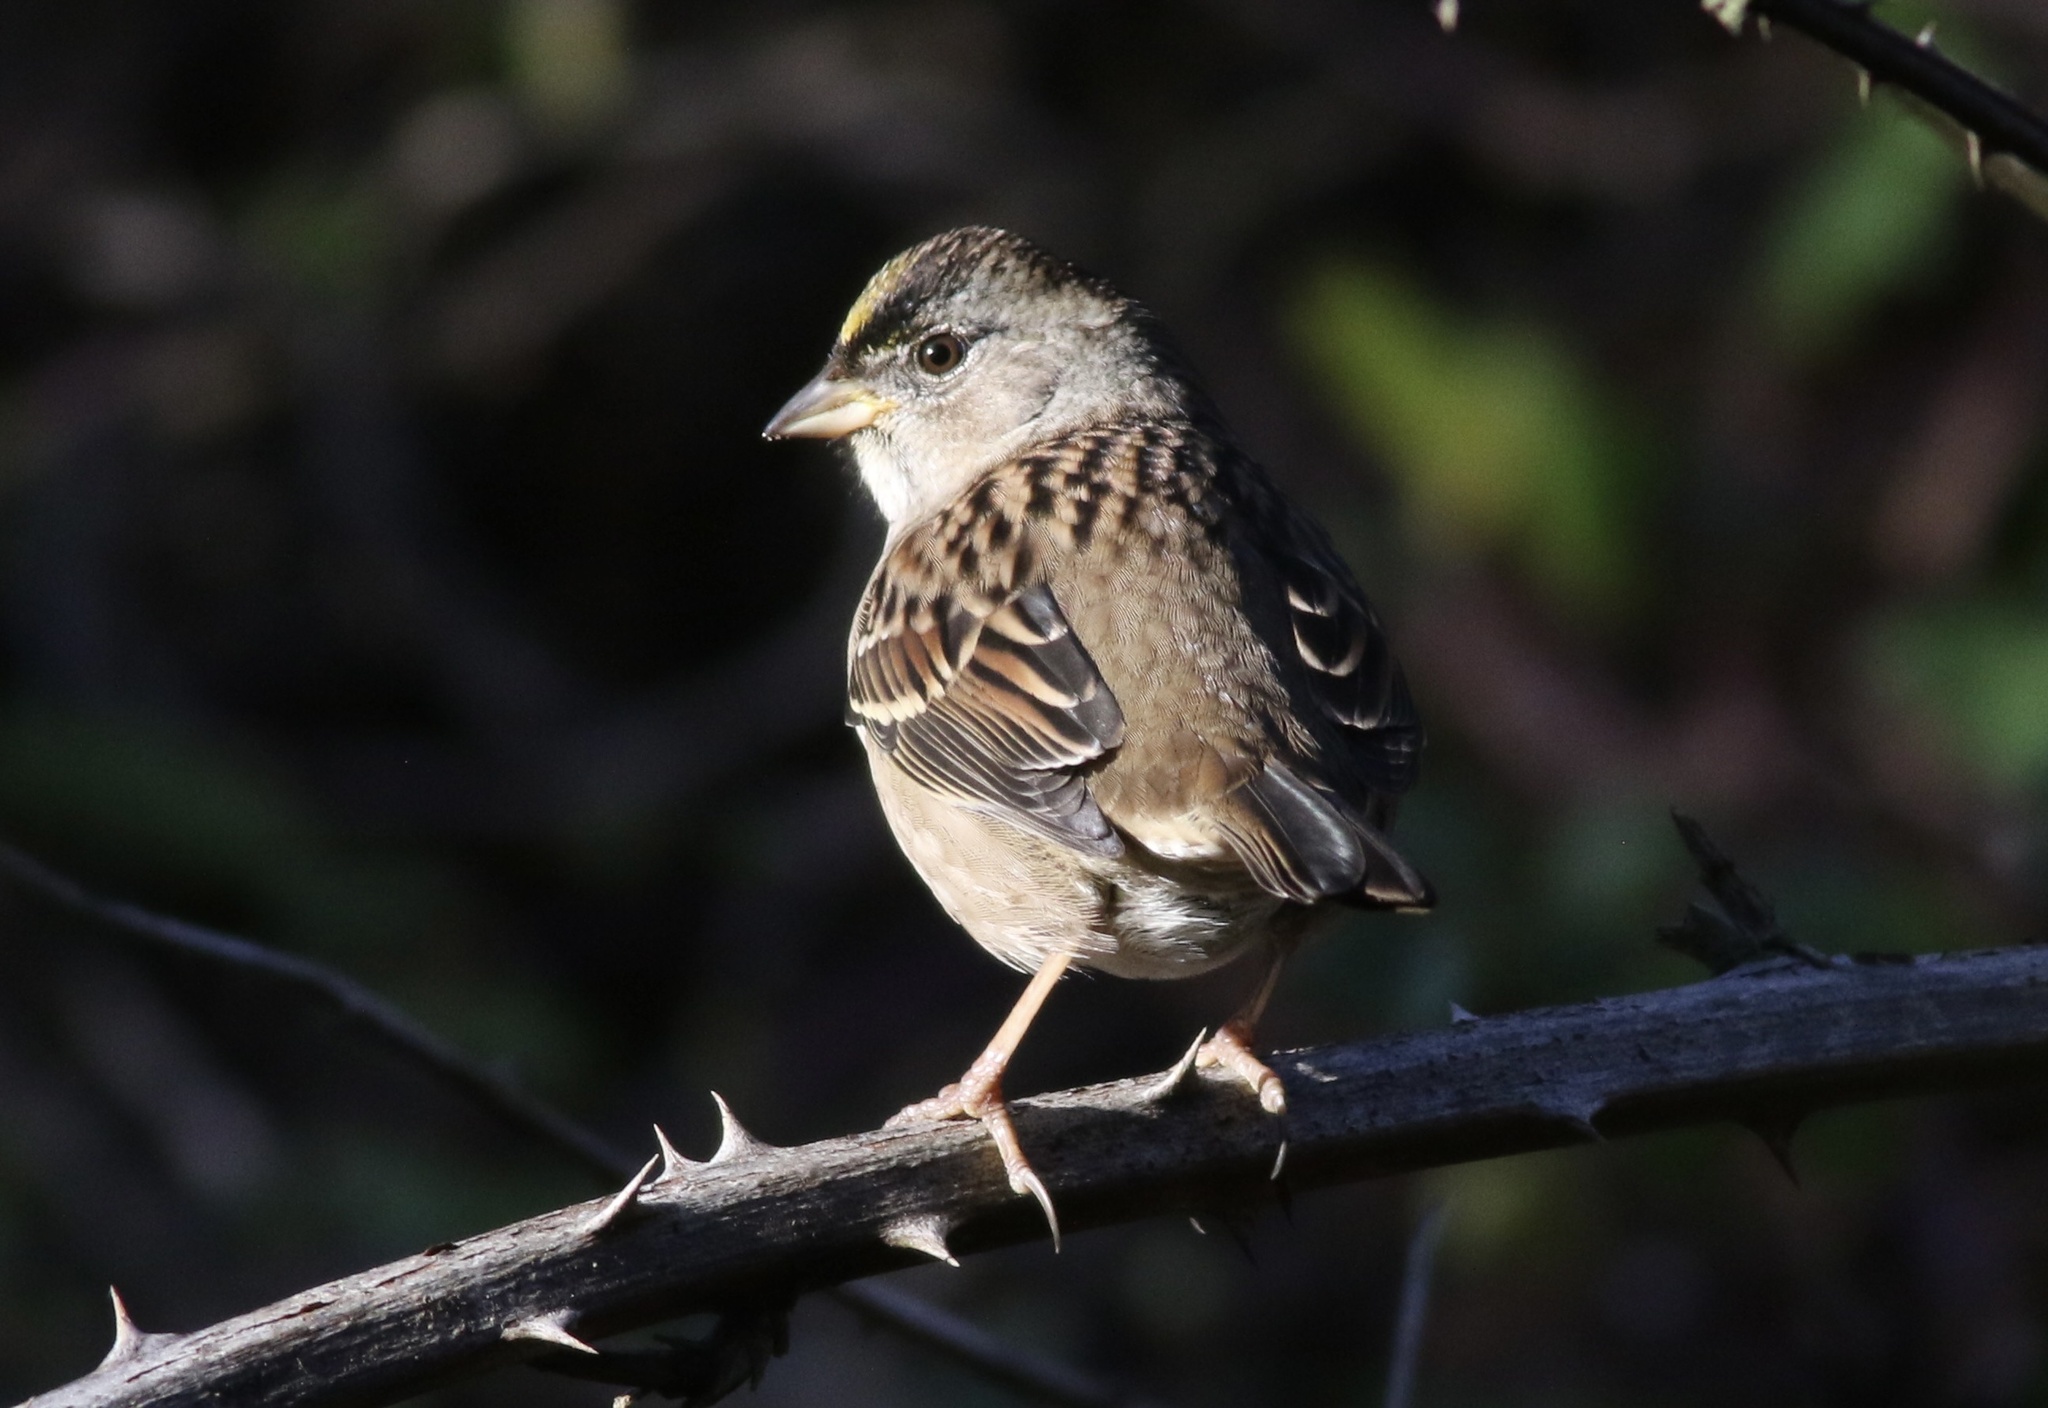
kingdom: Animalia
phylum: Chordata
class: Aves
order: Passeriformes
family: Passerellidae
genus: Zonotrichia
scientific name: Zonotrichia atricapilla
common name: Golden-crowned sparrow
